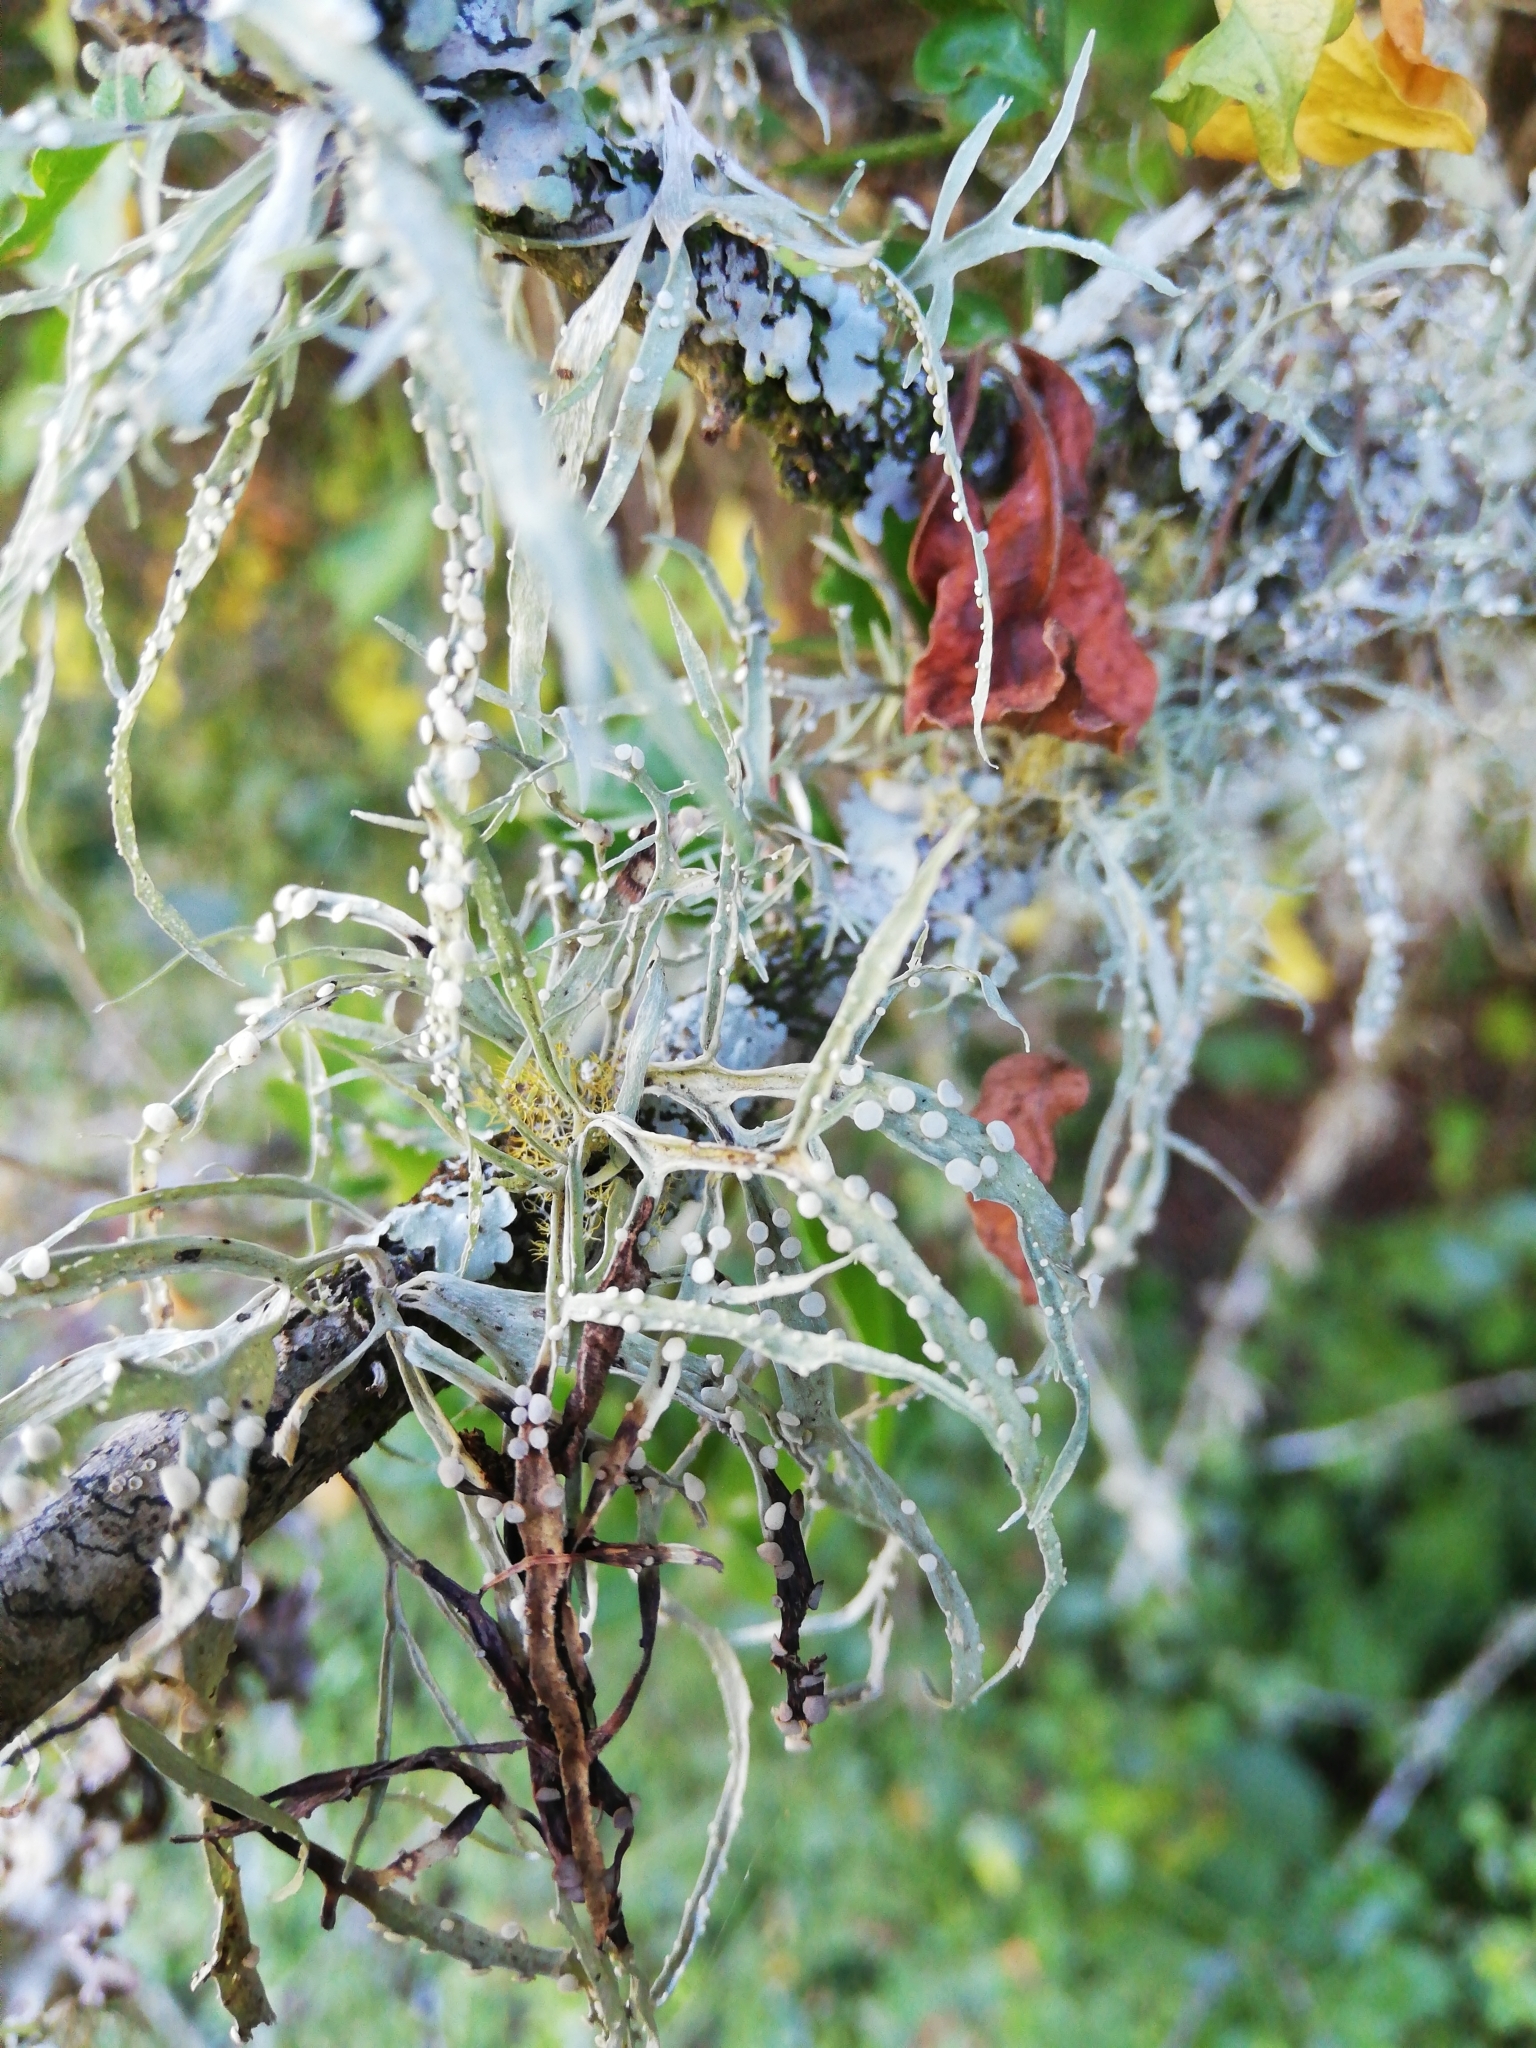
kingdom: Fungi
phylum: Ascomycota
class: Lecanoromycetes
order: Lecanorales
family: Ramalinaceae
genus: Ramalina
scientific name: Ramalina celastri
